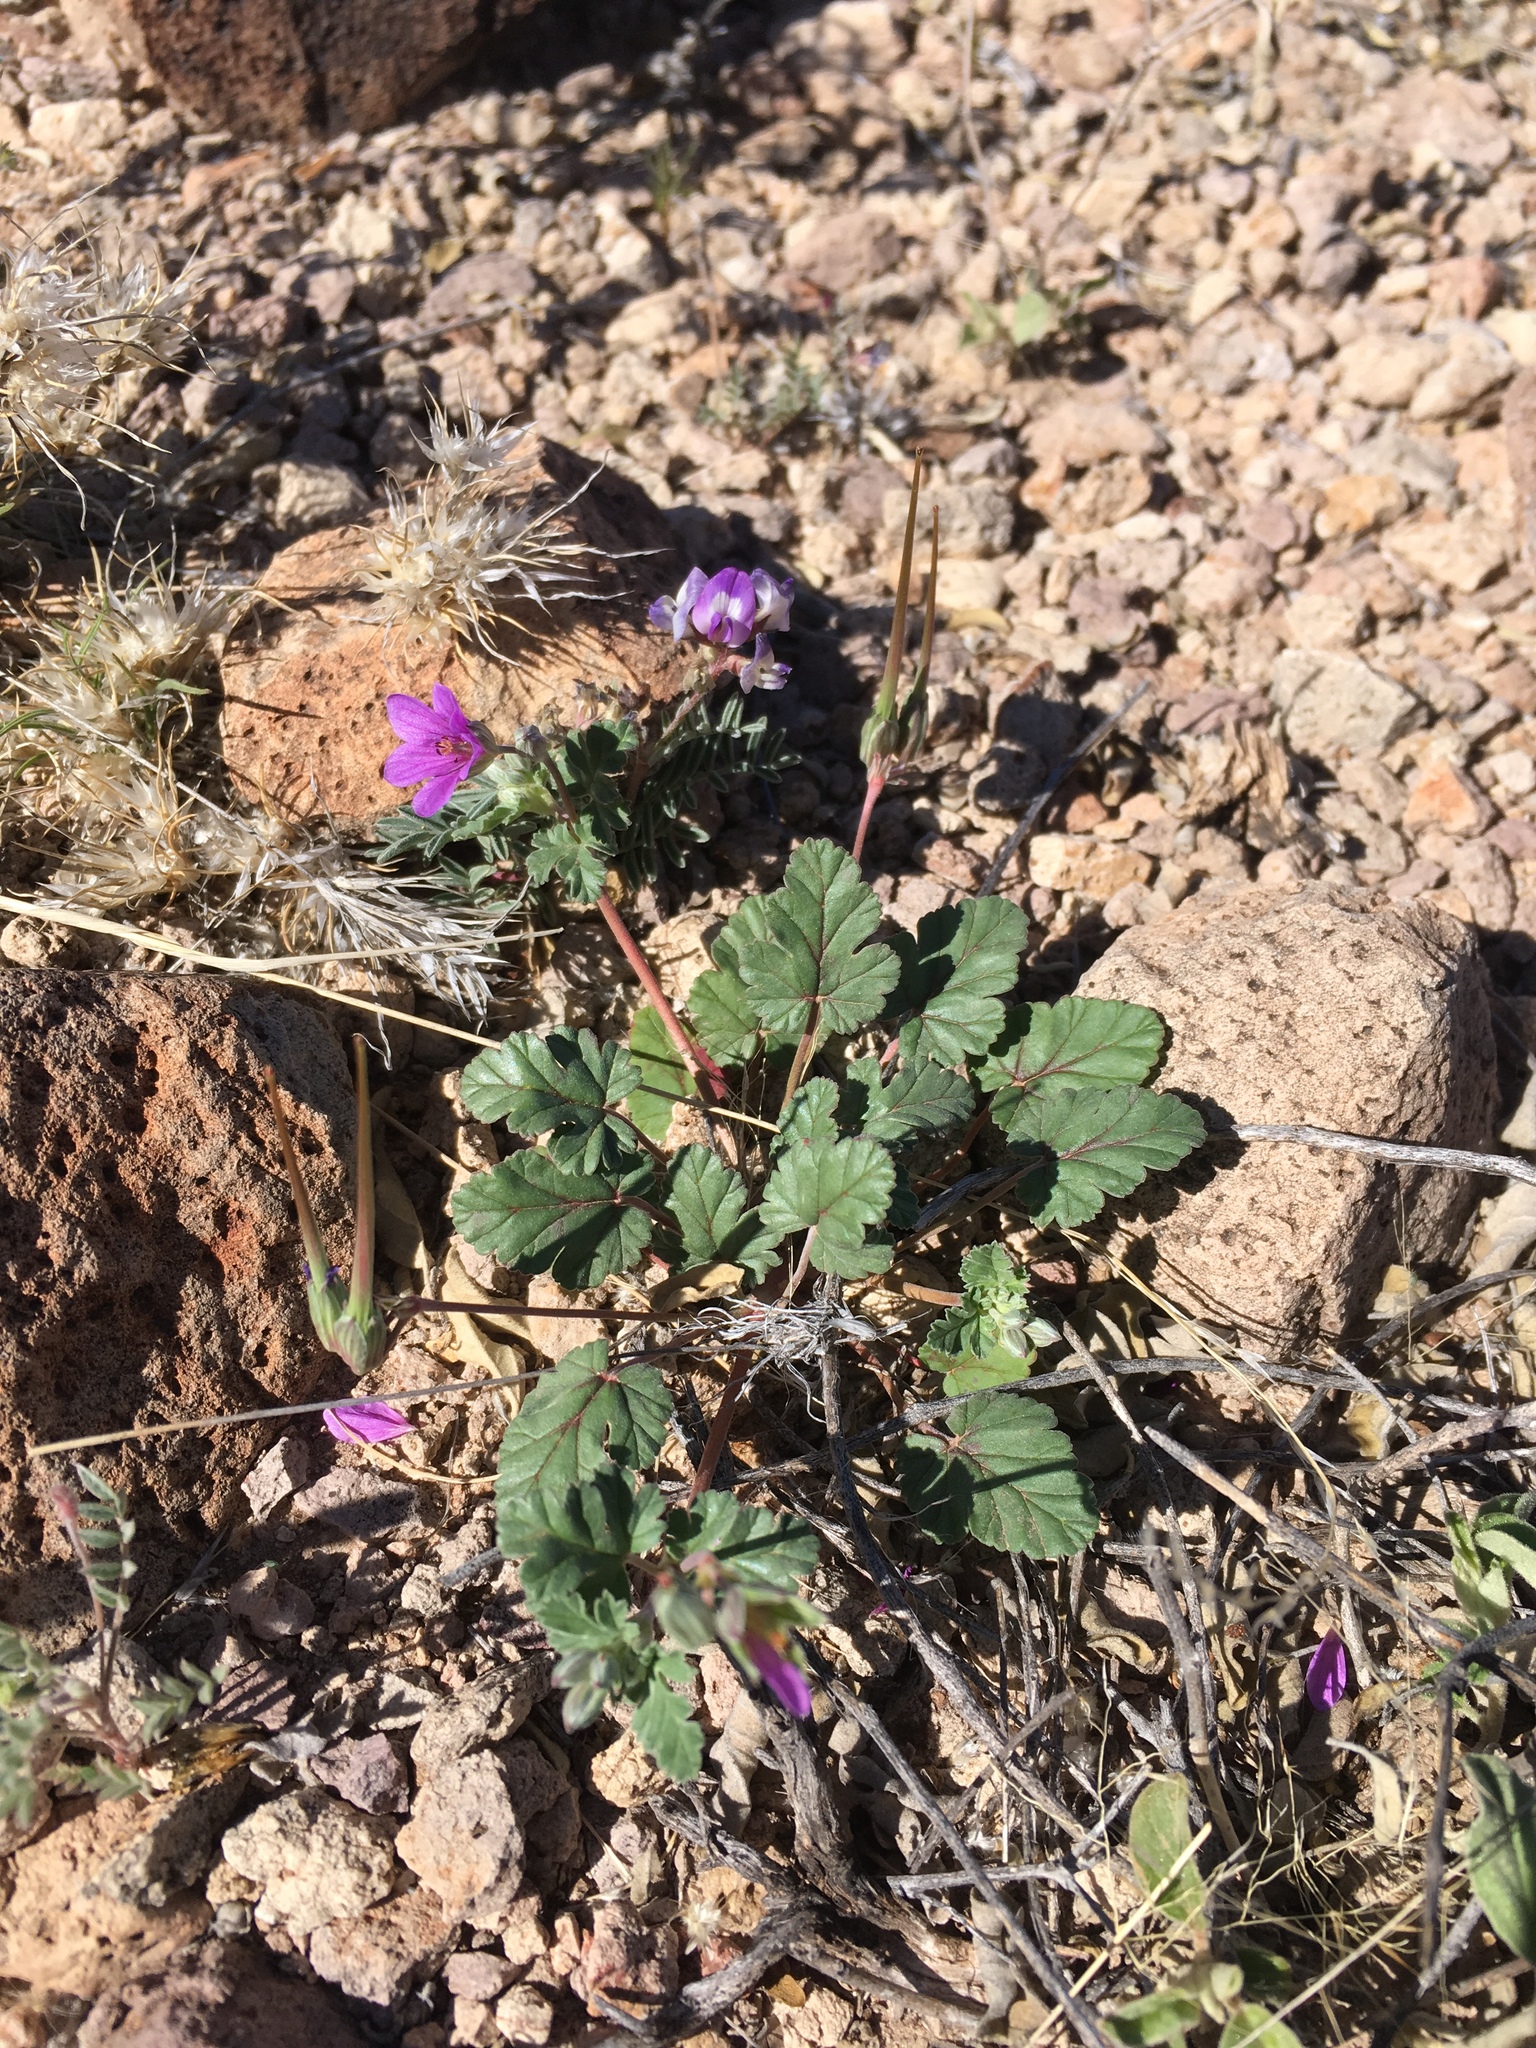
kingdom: Plantae
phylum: Tracheophyta
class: Magnoliopsida
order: Geraniales
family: Geraniaceae
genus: Erodium
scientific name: Erodium texanum
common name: Texas stork's-bill
